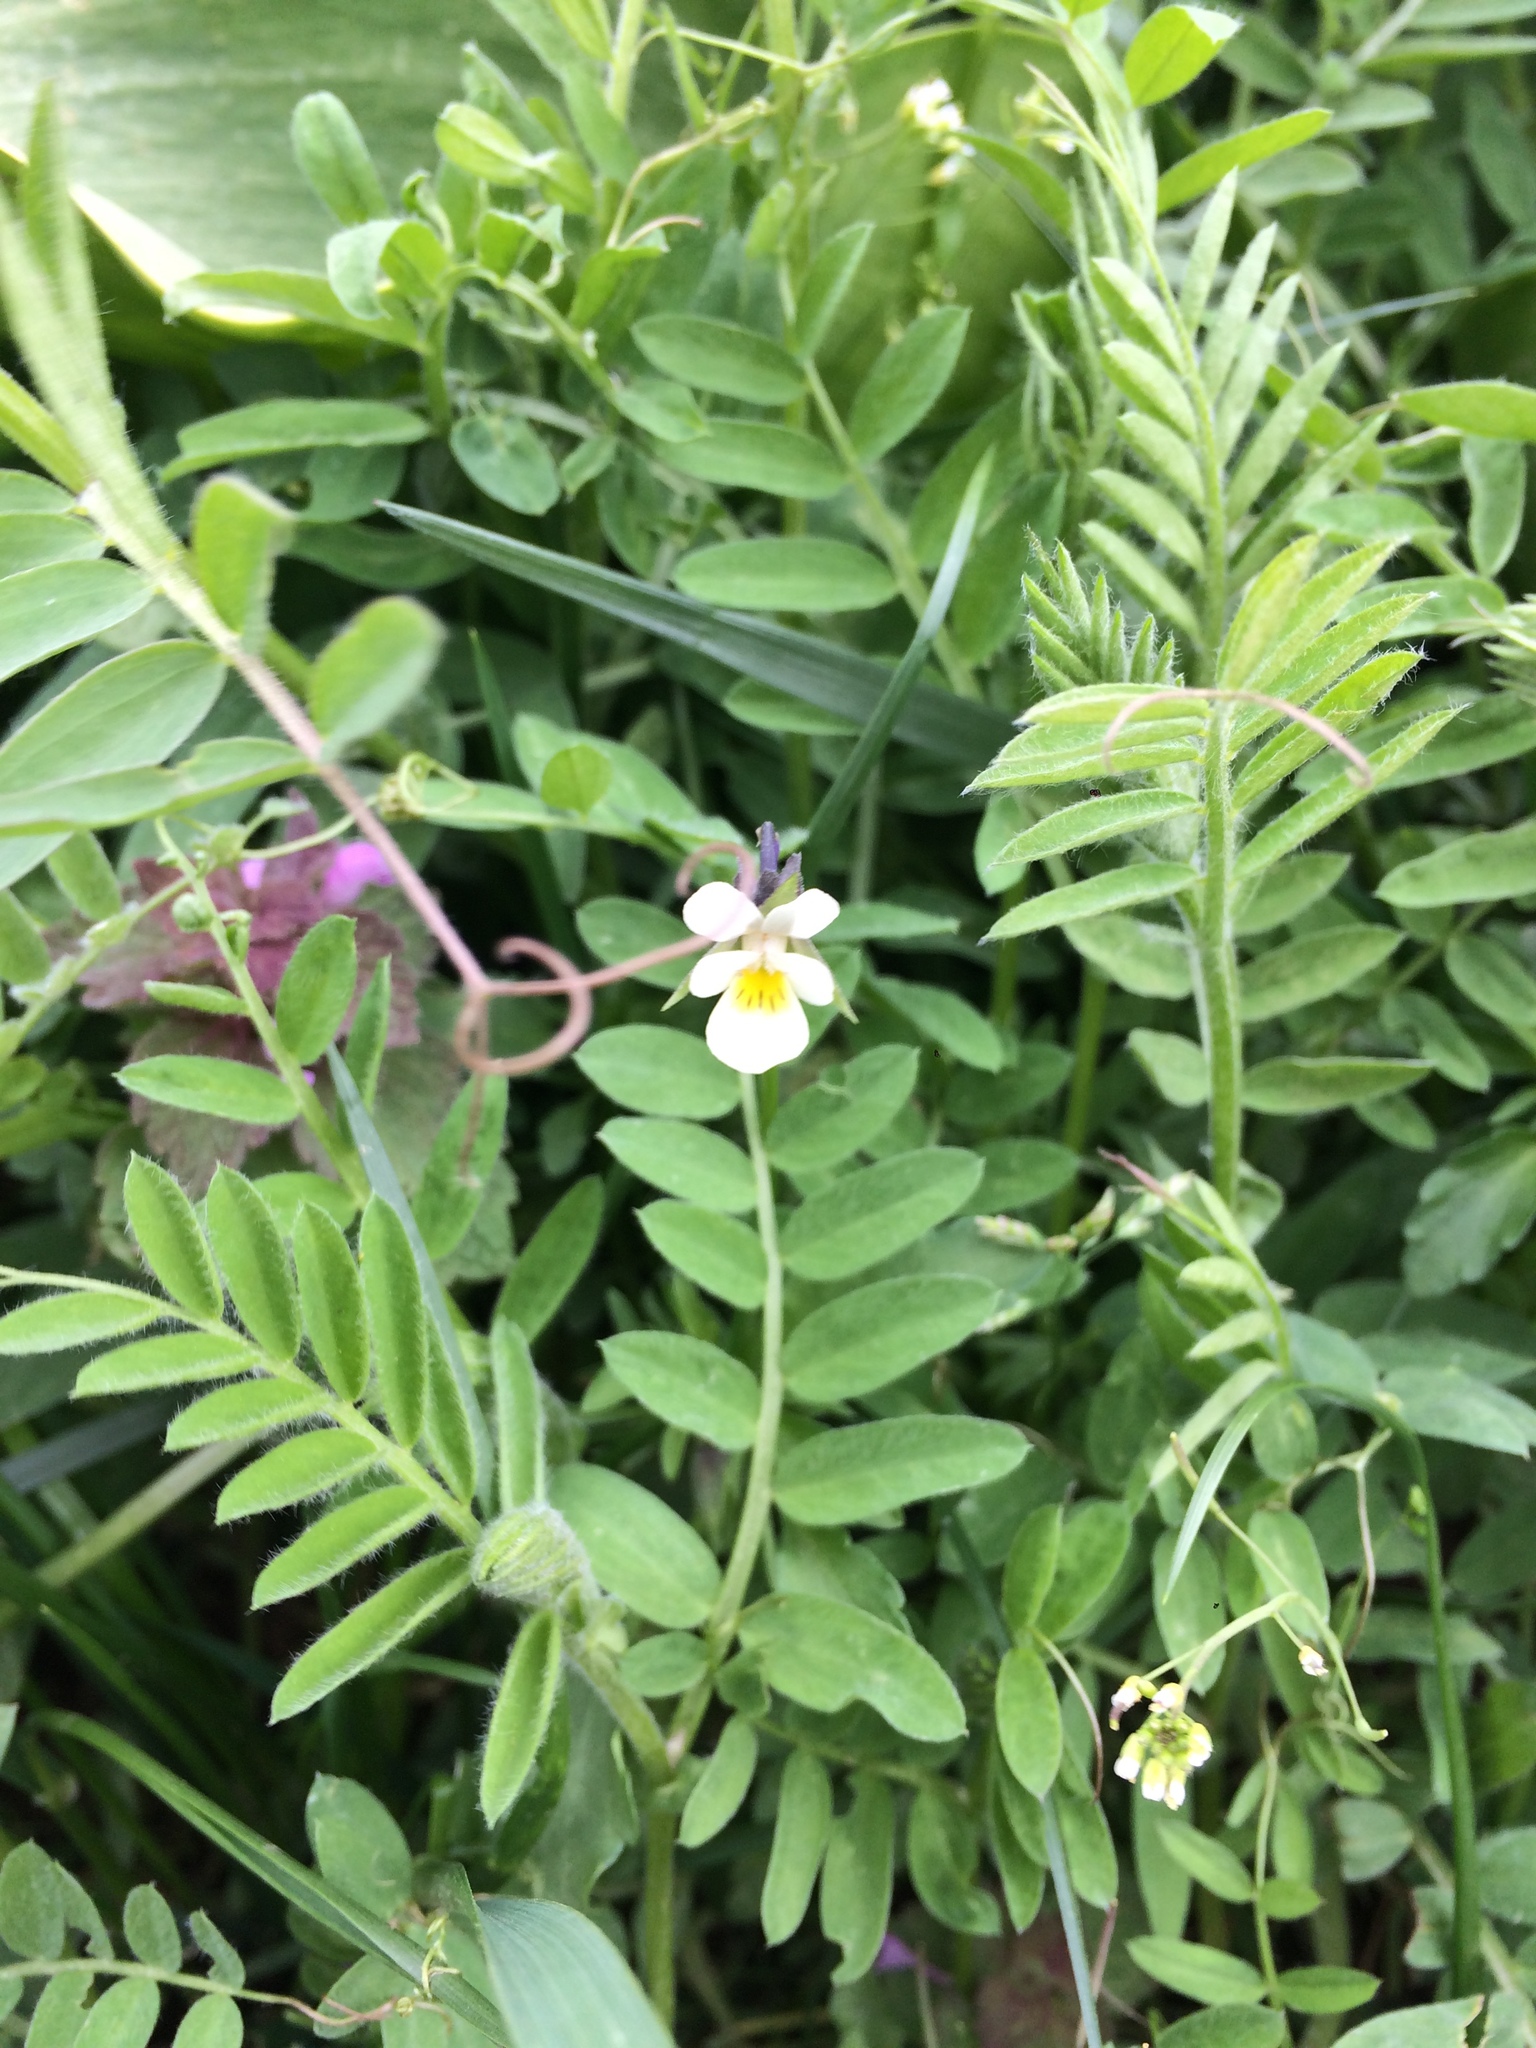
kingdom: Plantae
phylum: Tracheophyta
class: Magnoliopsida
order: Malpighiales
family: Violaceae
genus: Viola
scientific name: Viola arvensis
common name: Field pansy
